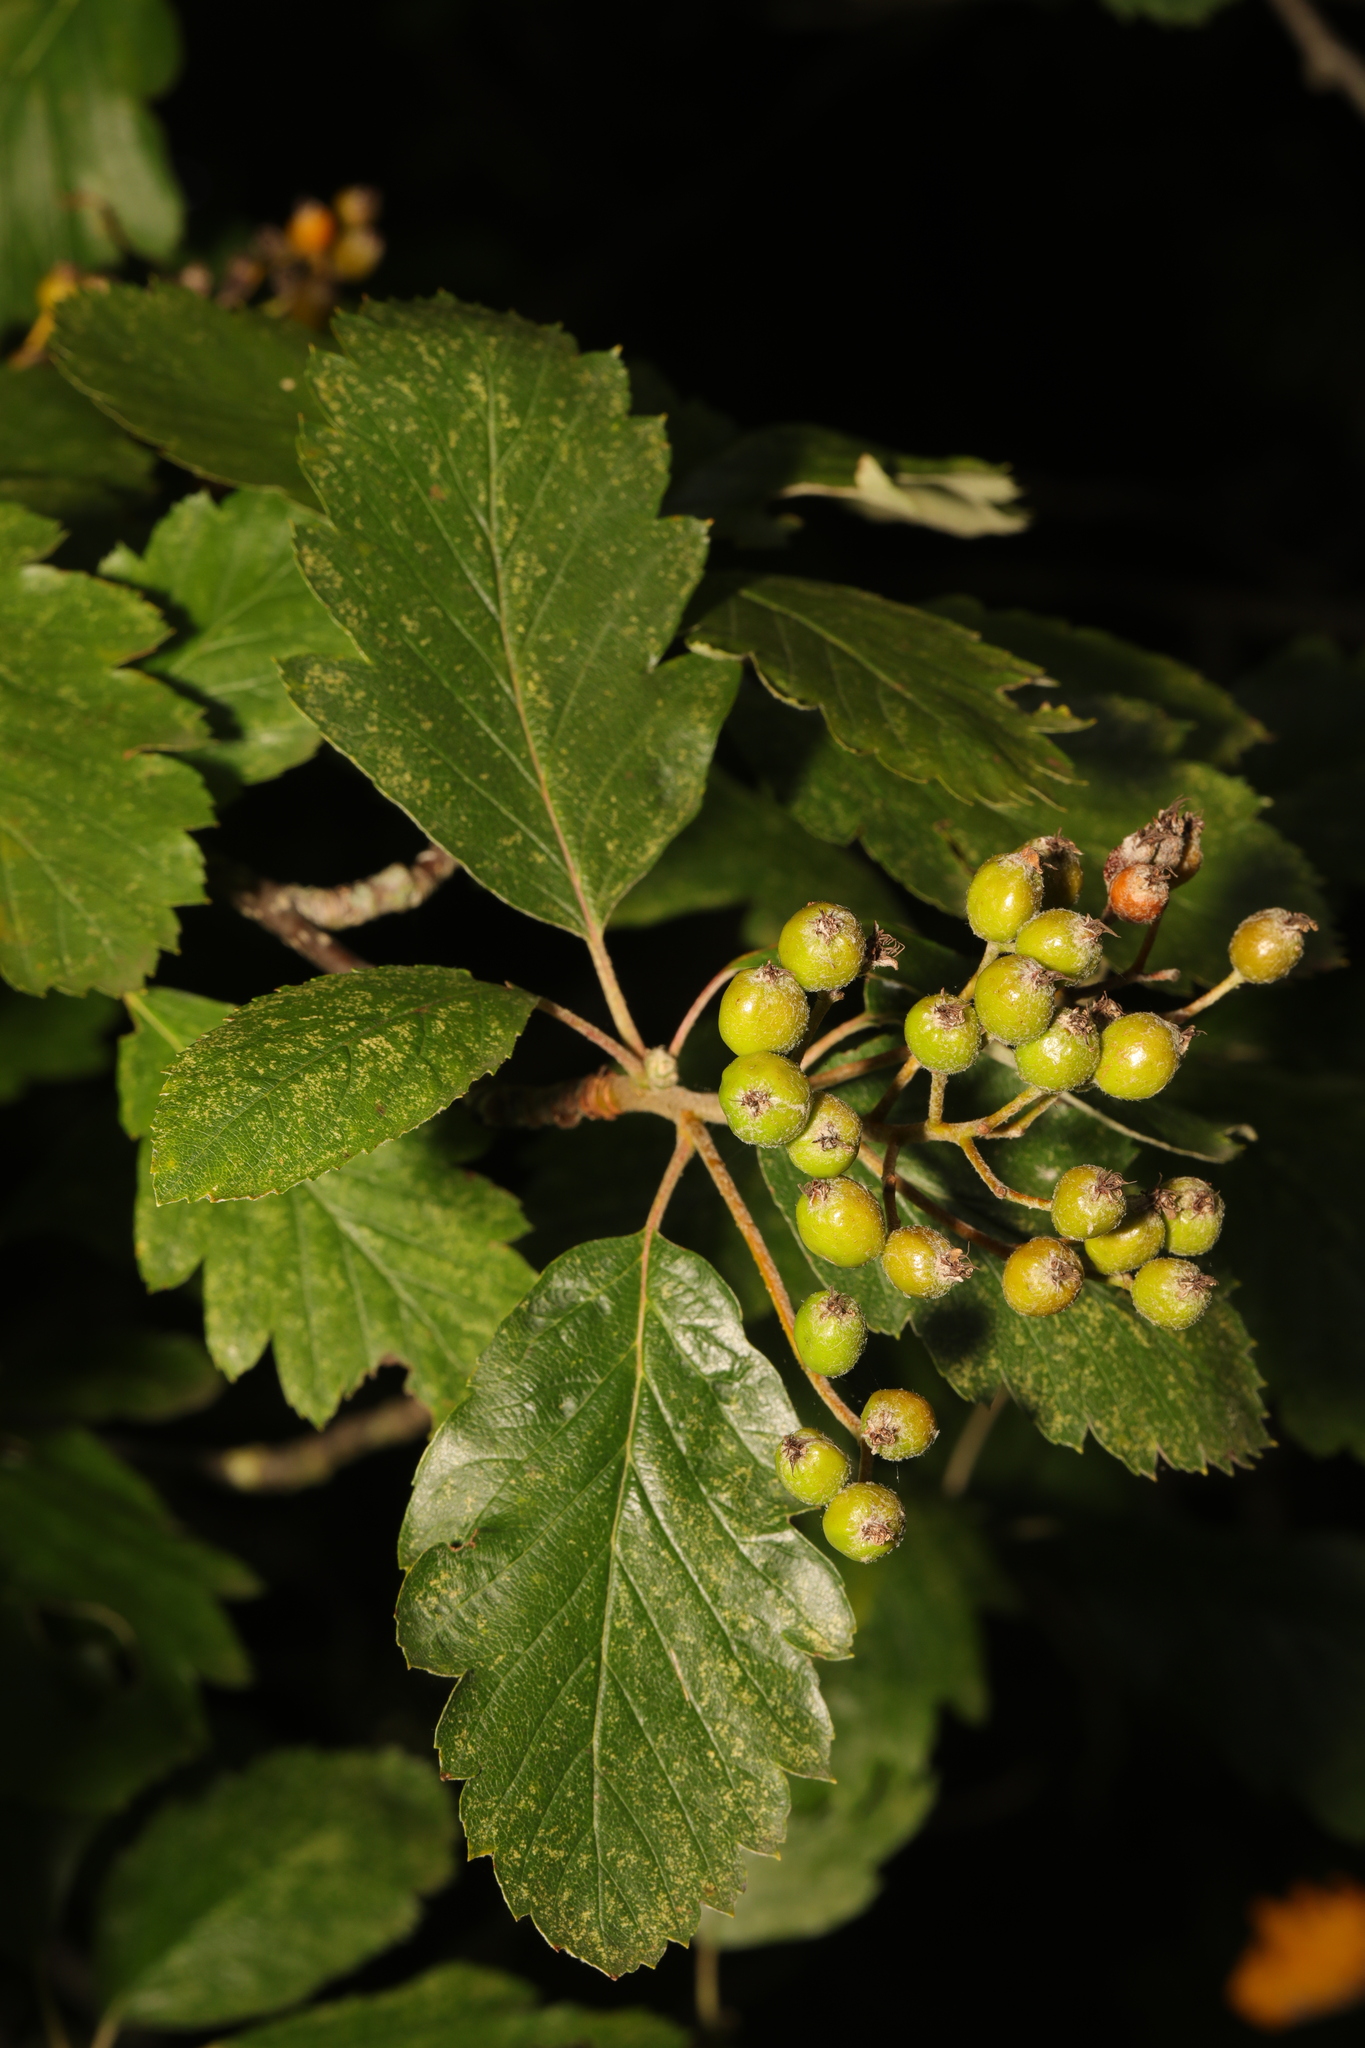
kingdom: Plantae
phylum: Tracheophyta
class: Magnoliopsida
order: Rosales
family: Rosaceae
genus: Scandosorbus
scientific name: Scandosorbus intermedia
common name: Swedish whitebeam
